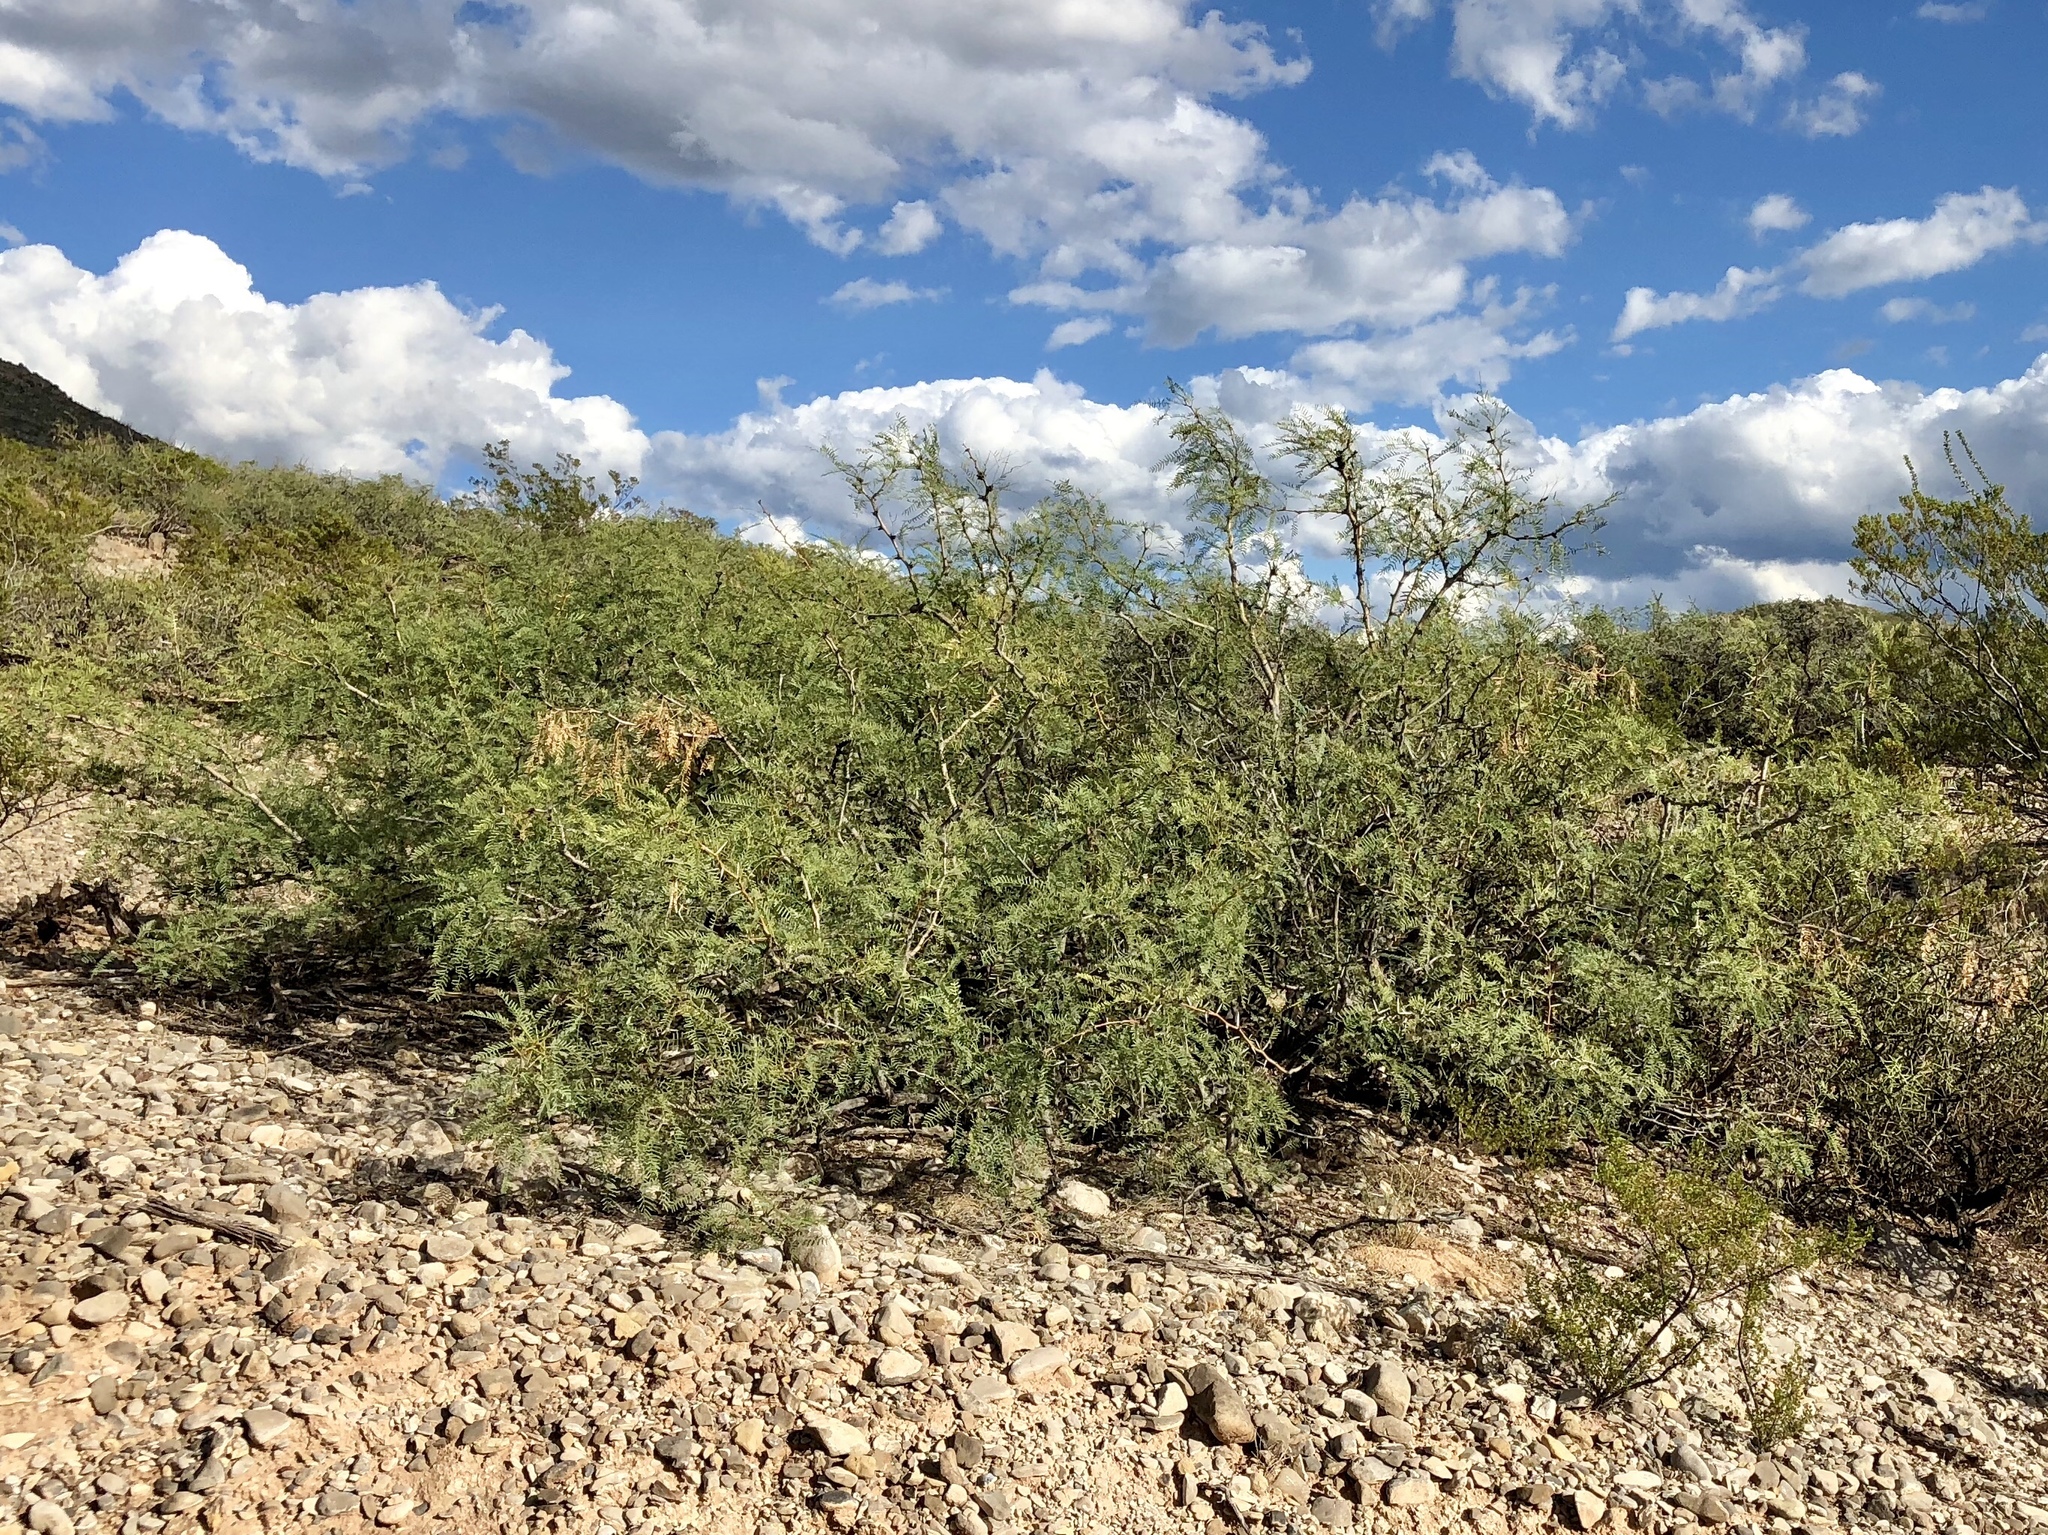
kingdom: Plantae
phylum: Tracheophyta
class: Magnoliopsida
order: Fabales
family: Fabaceae
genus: Prosopis
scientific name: Prosopis glandulosa
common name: Honey mesquite
